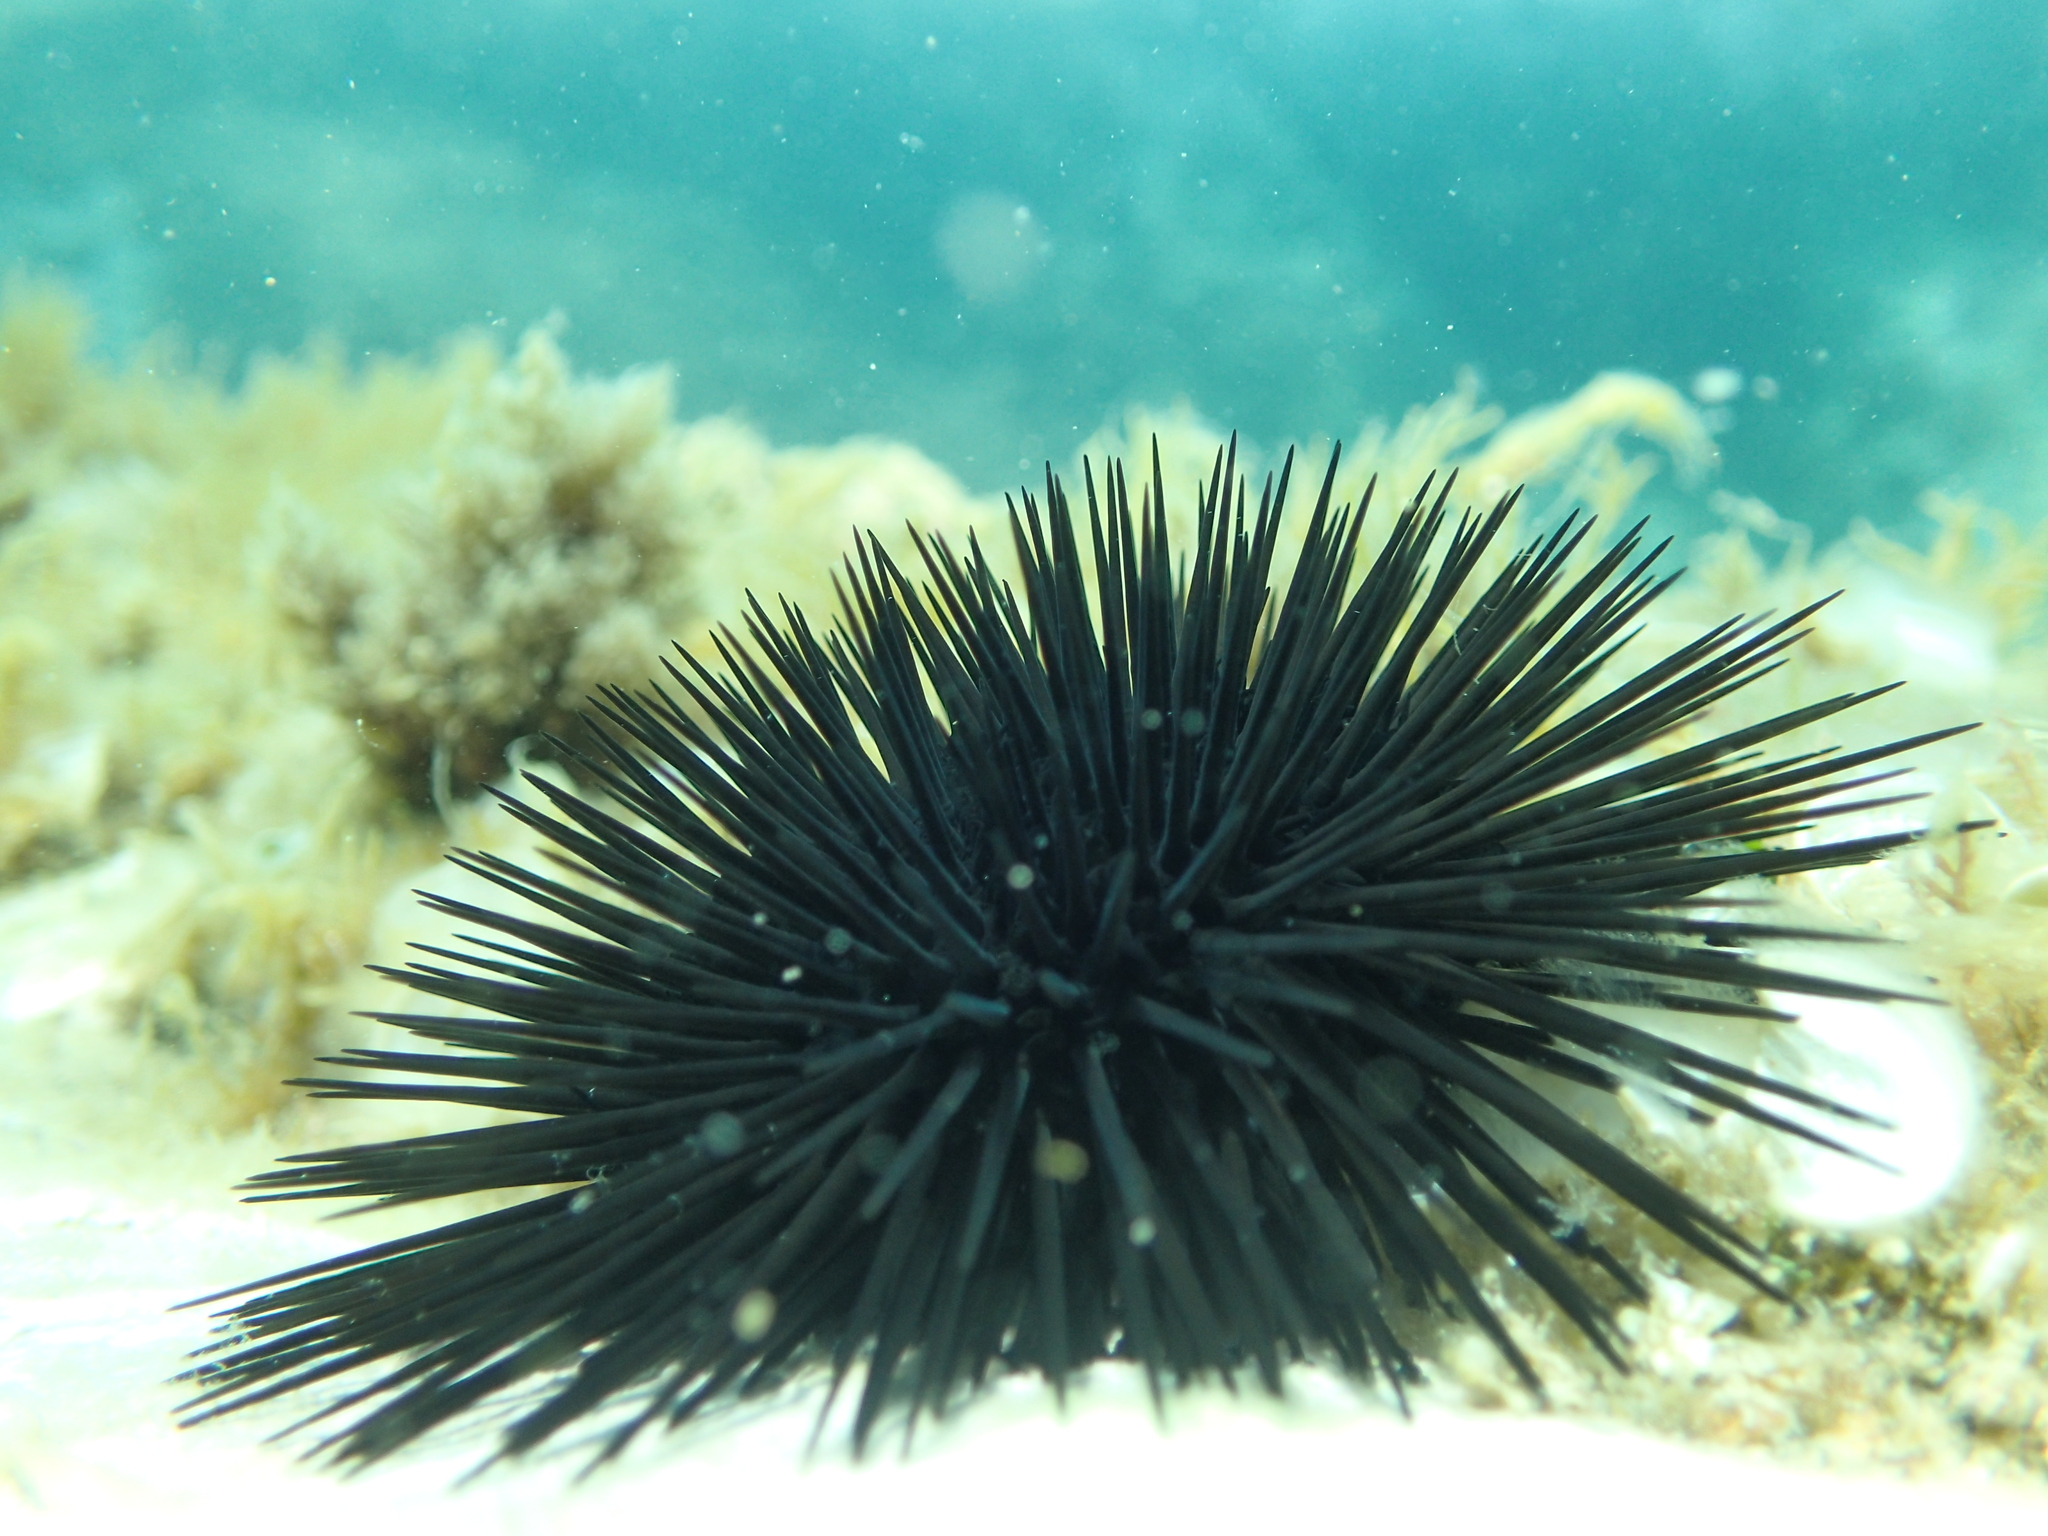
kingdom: Animalia
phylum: Echinodermata
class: Echinoidea
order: Arbacioida
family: Arbaciidae
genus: Arbacia
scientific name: Arbacia lixula
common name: Black sea urchin
